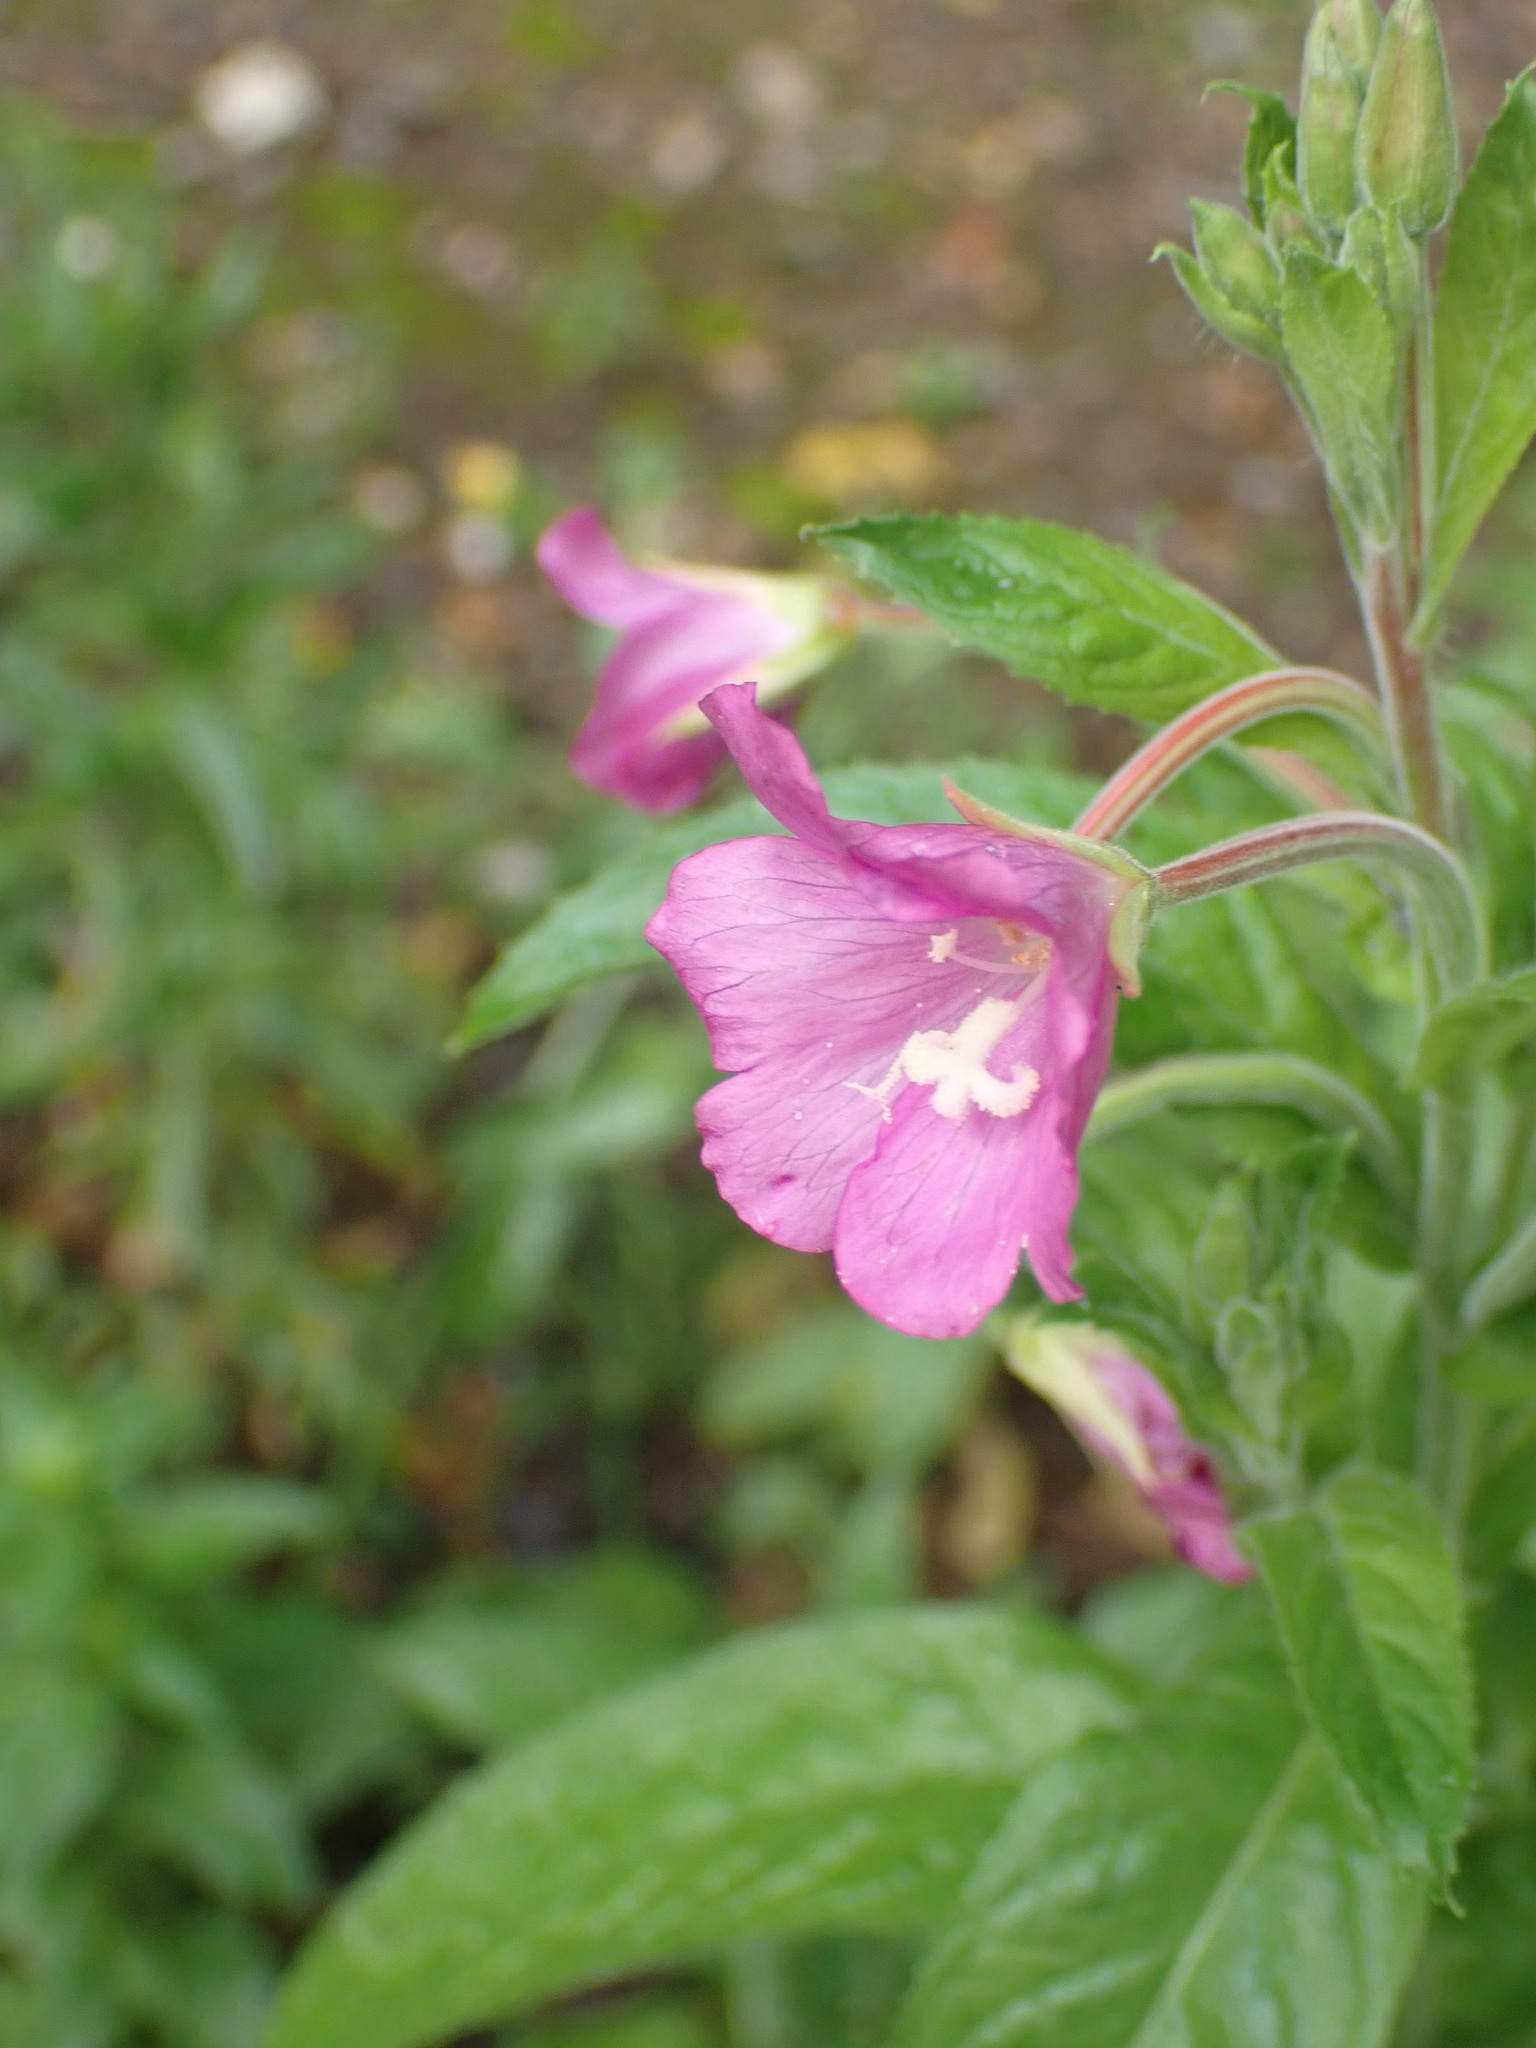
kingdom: Plantae
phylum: Tracheophyta
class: Magnoliopsida
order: Myrtales
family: Onagraceae
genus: Epilobium
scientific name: Epilobium hirsutum
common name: Great willowherb
